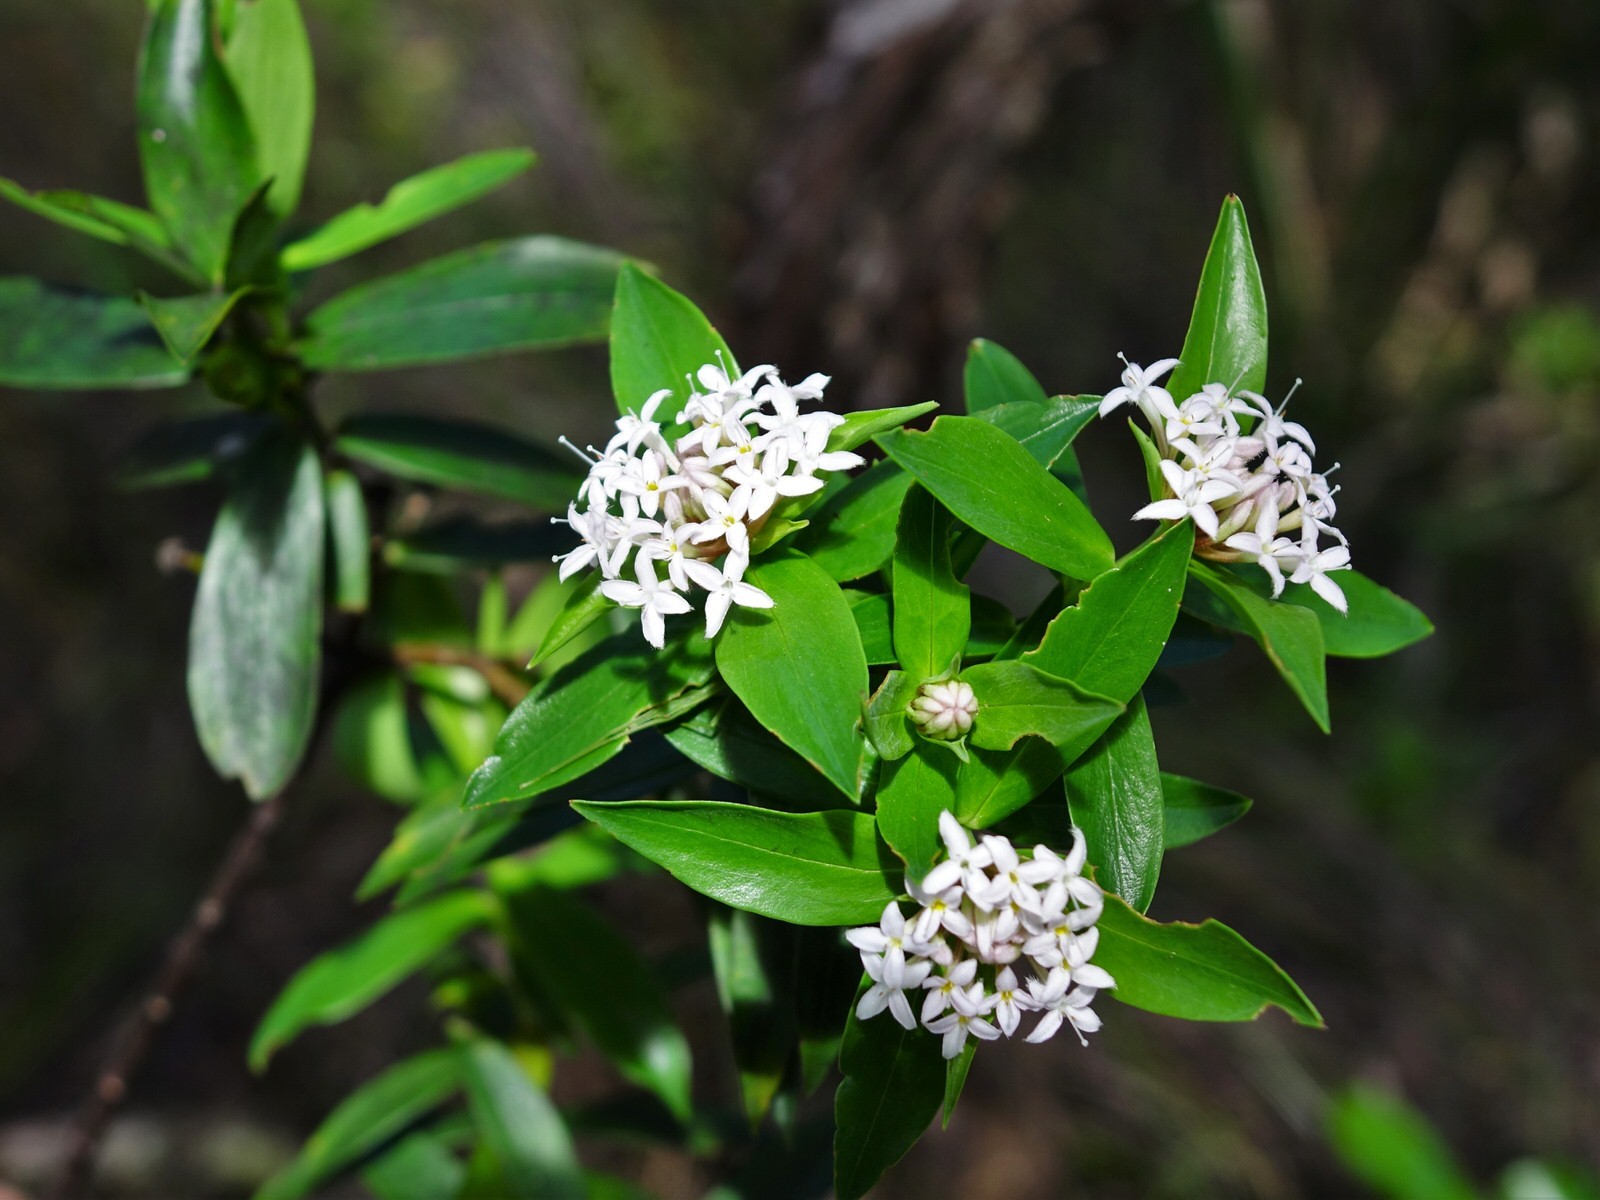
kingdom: Plantae
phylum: Tracheophyta
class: Magnoliopsida
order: Malvales
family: Thymelaeaceae
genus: Pimelea
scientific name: Pimelea longifolia
